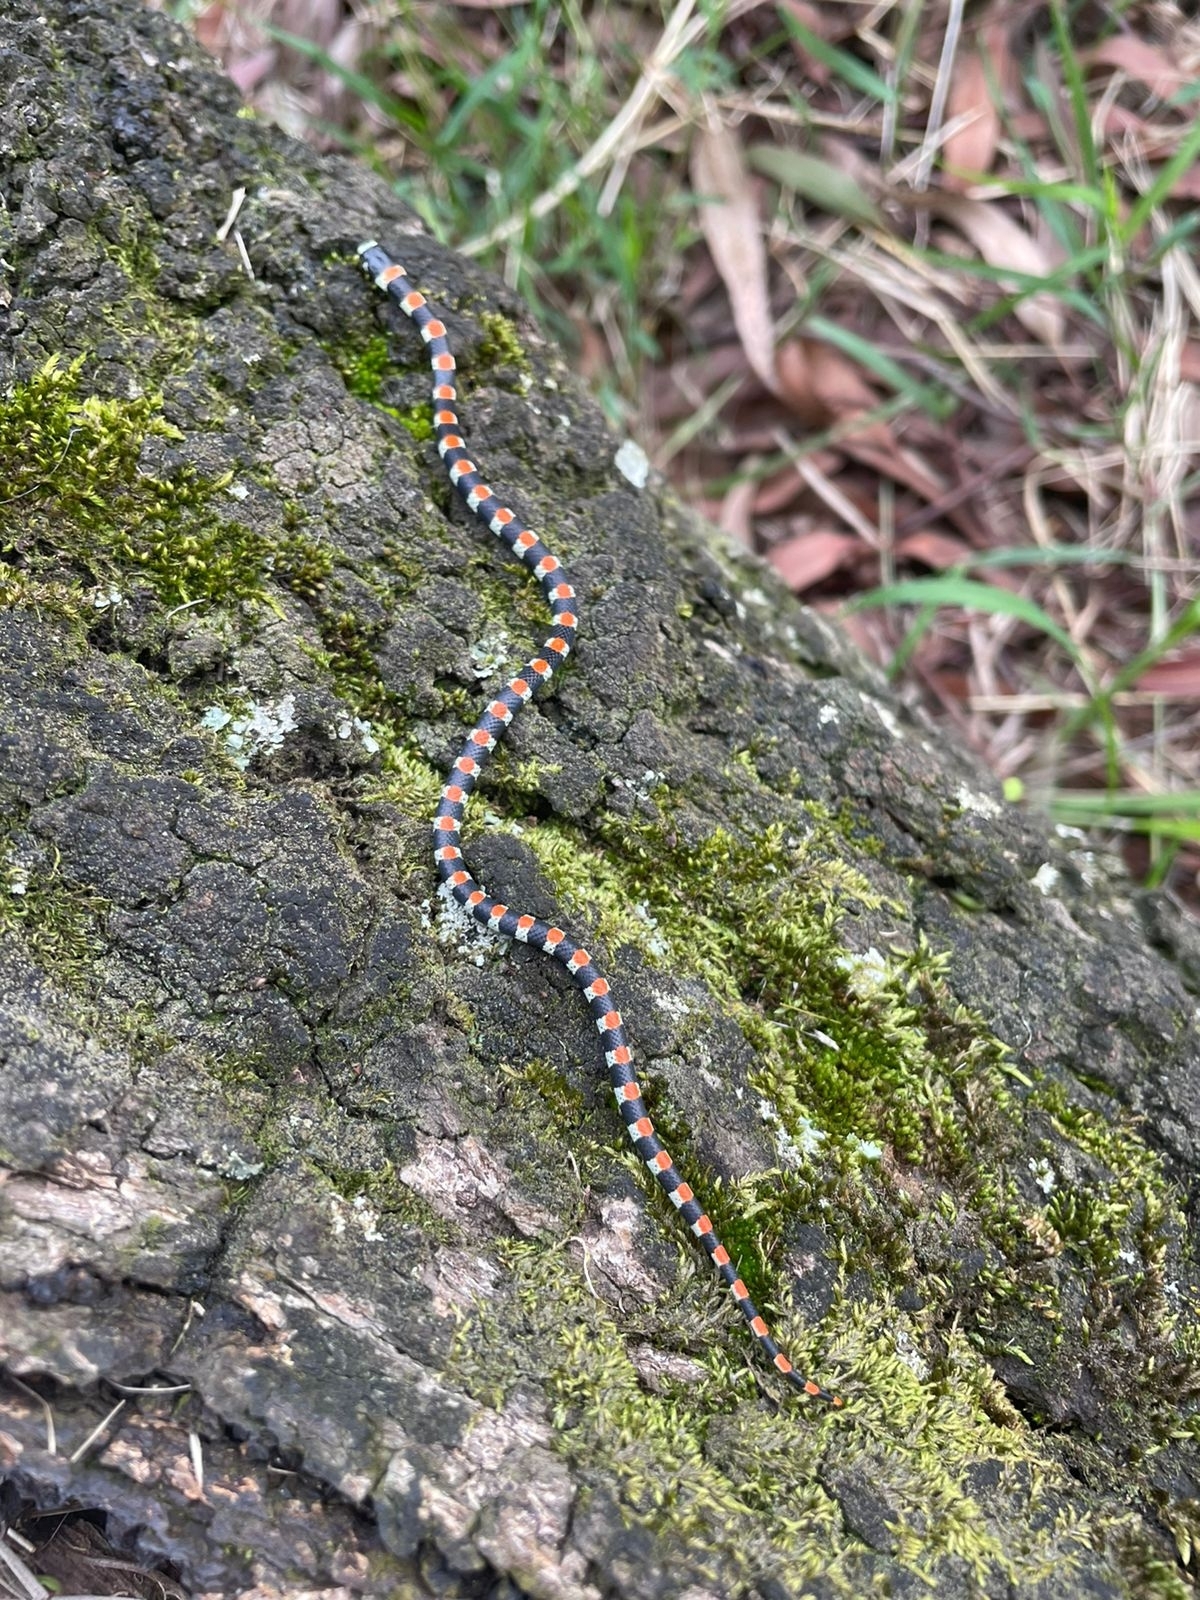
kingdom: Animalia
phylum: Chordata
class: Squamata
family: Colubridae
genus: Scolecophis
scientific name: Scolecophis atrocinctus
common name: Black-banded snake
